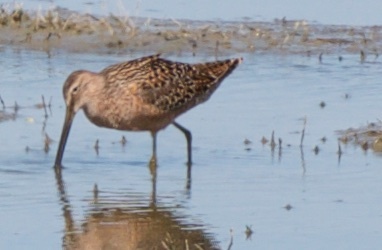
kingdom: Animalia
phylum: Chordata
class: Aves
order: Charadriiformes
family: Scolopacidae
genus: Limnodromus
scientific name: Limnodromus scolopaceus
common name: Long-billed dowitcher
